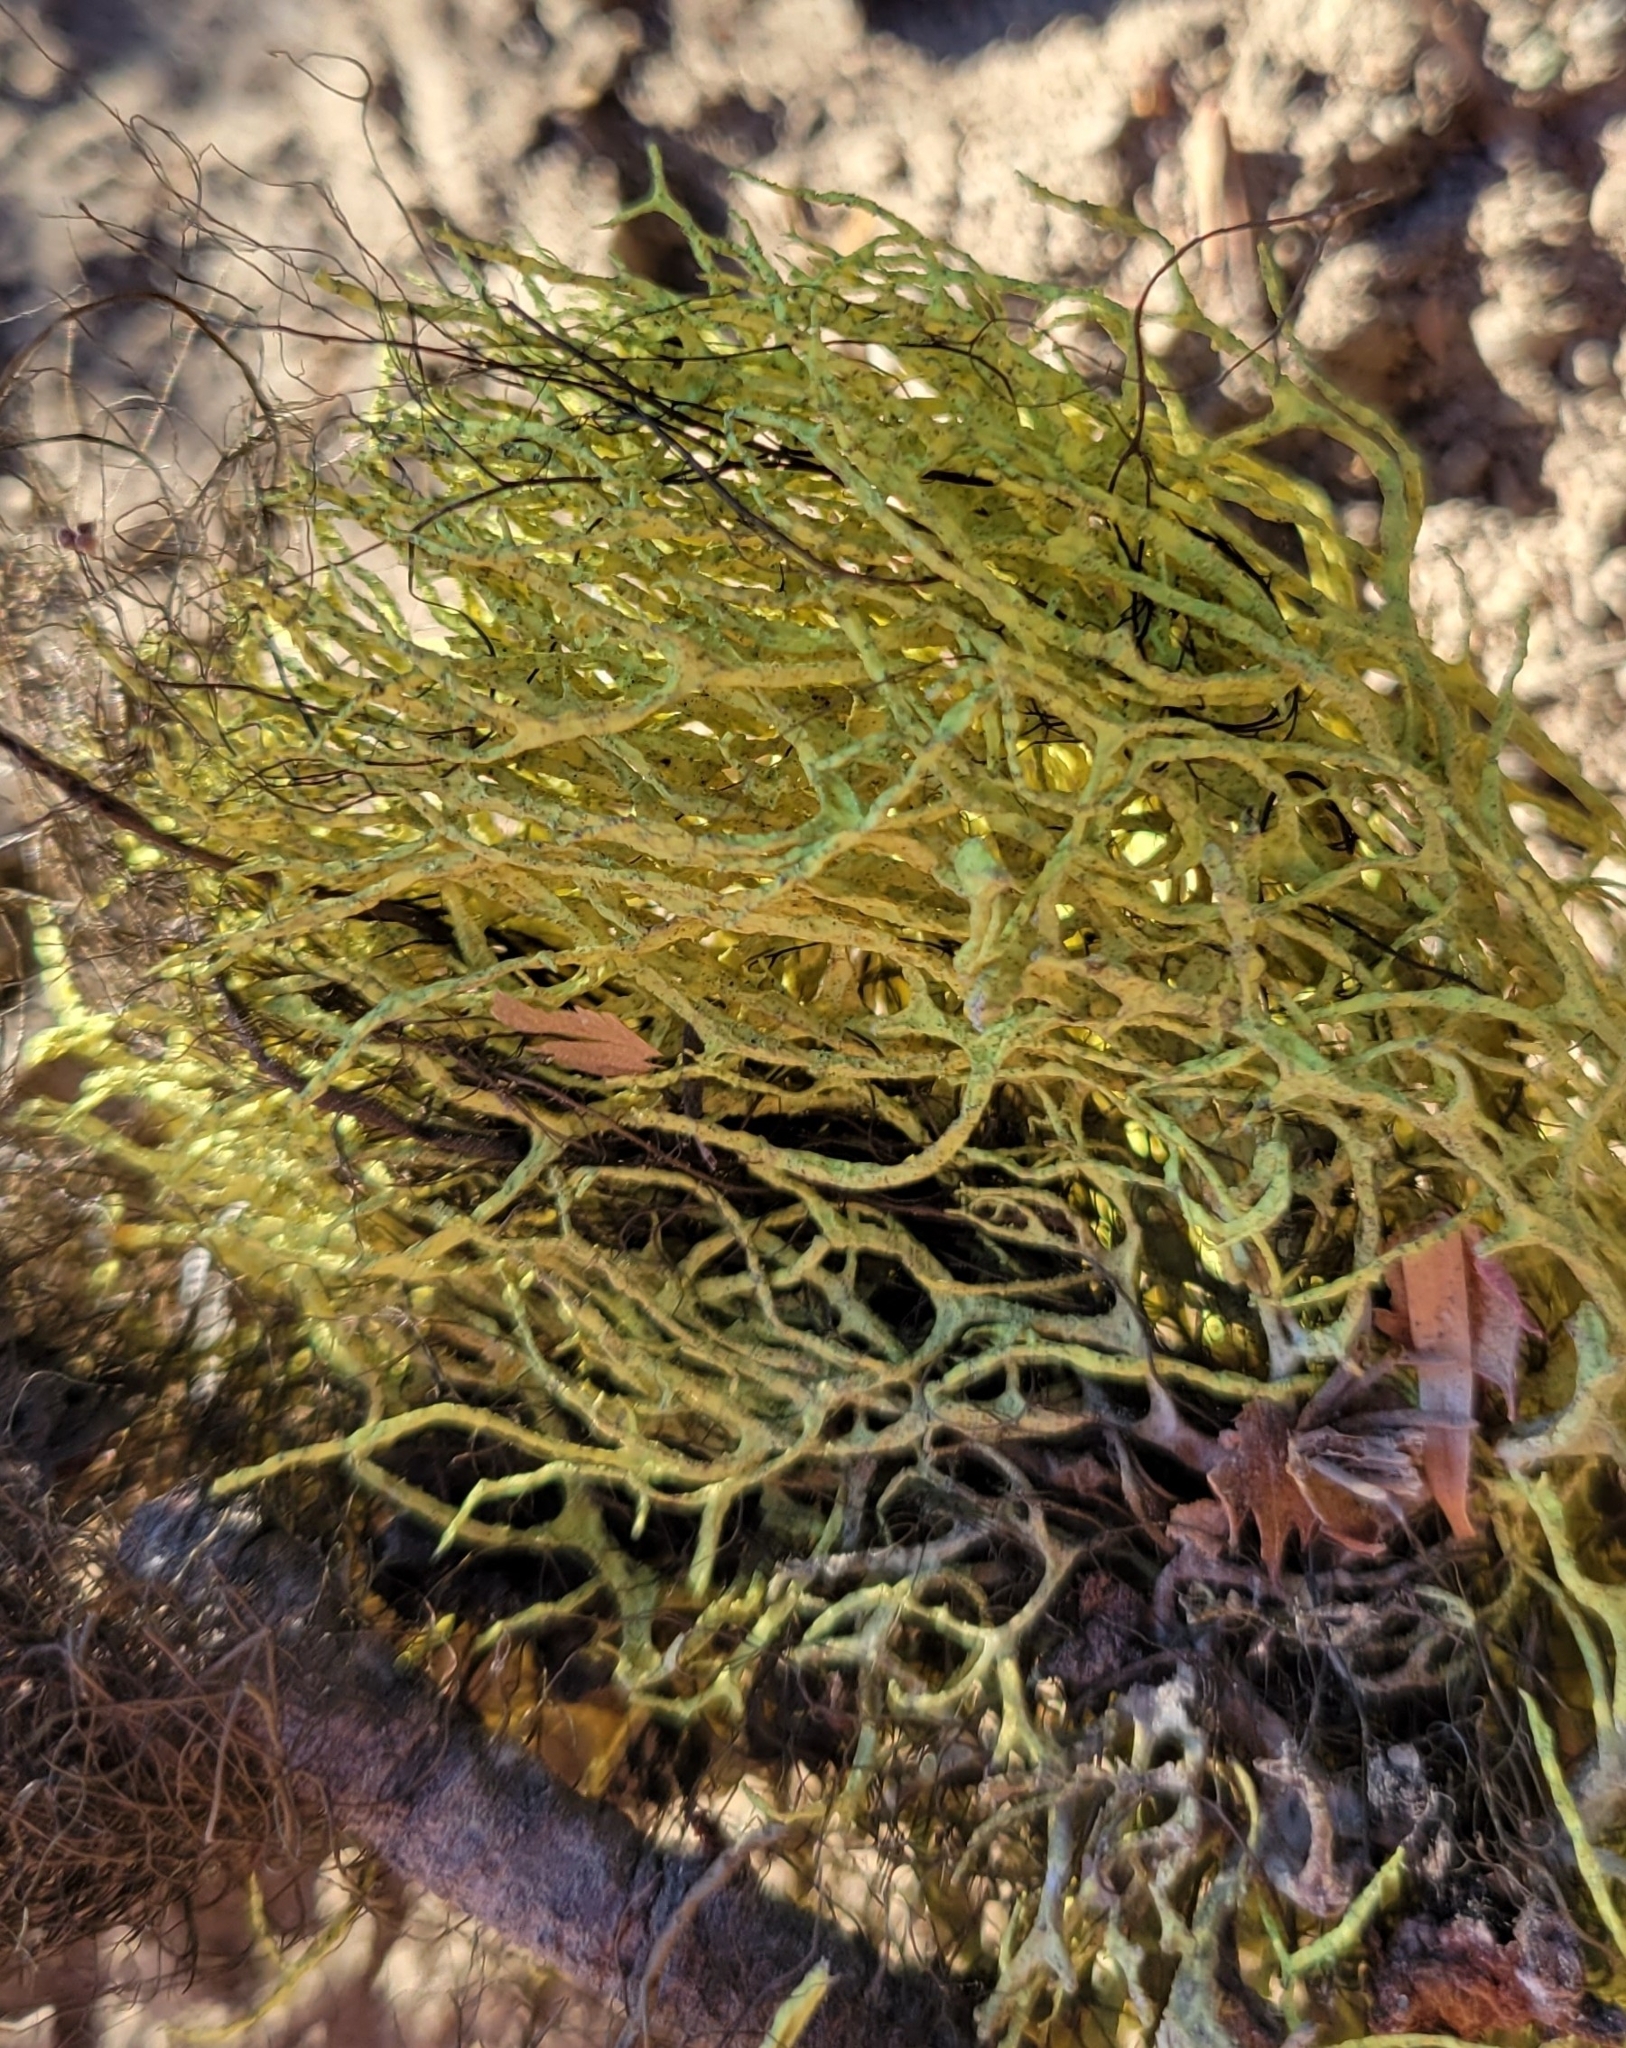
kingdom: Fungi
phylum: Ascomycota
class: Lecanoromycetes
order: Lecanorales
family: Parmeliaceae
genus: Letharia
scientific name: Letharia vulpina
